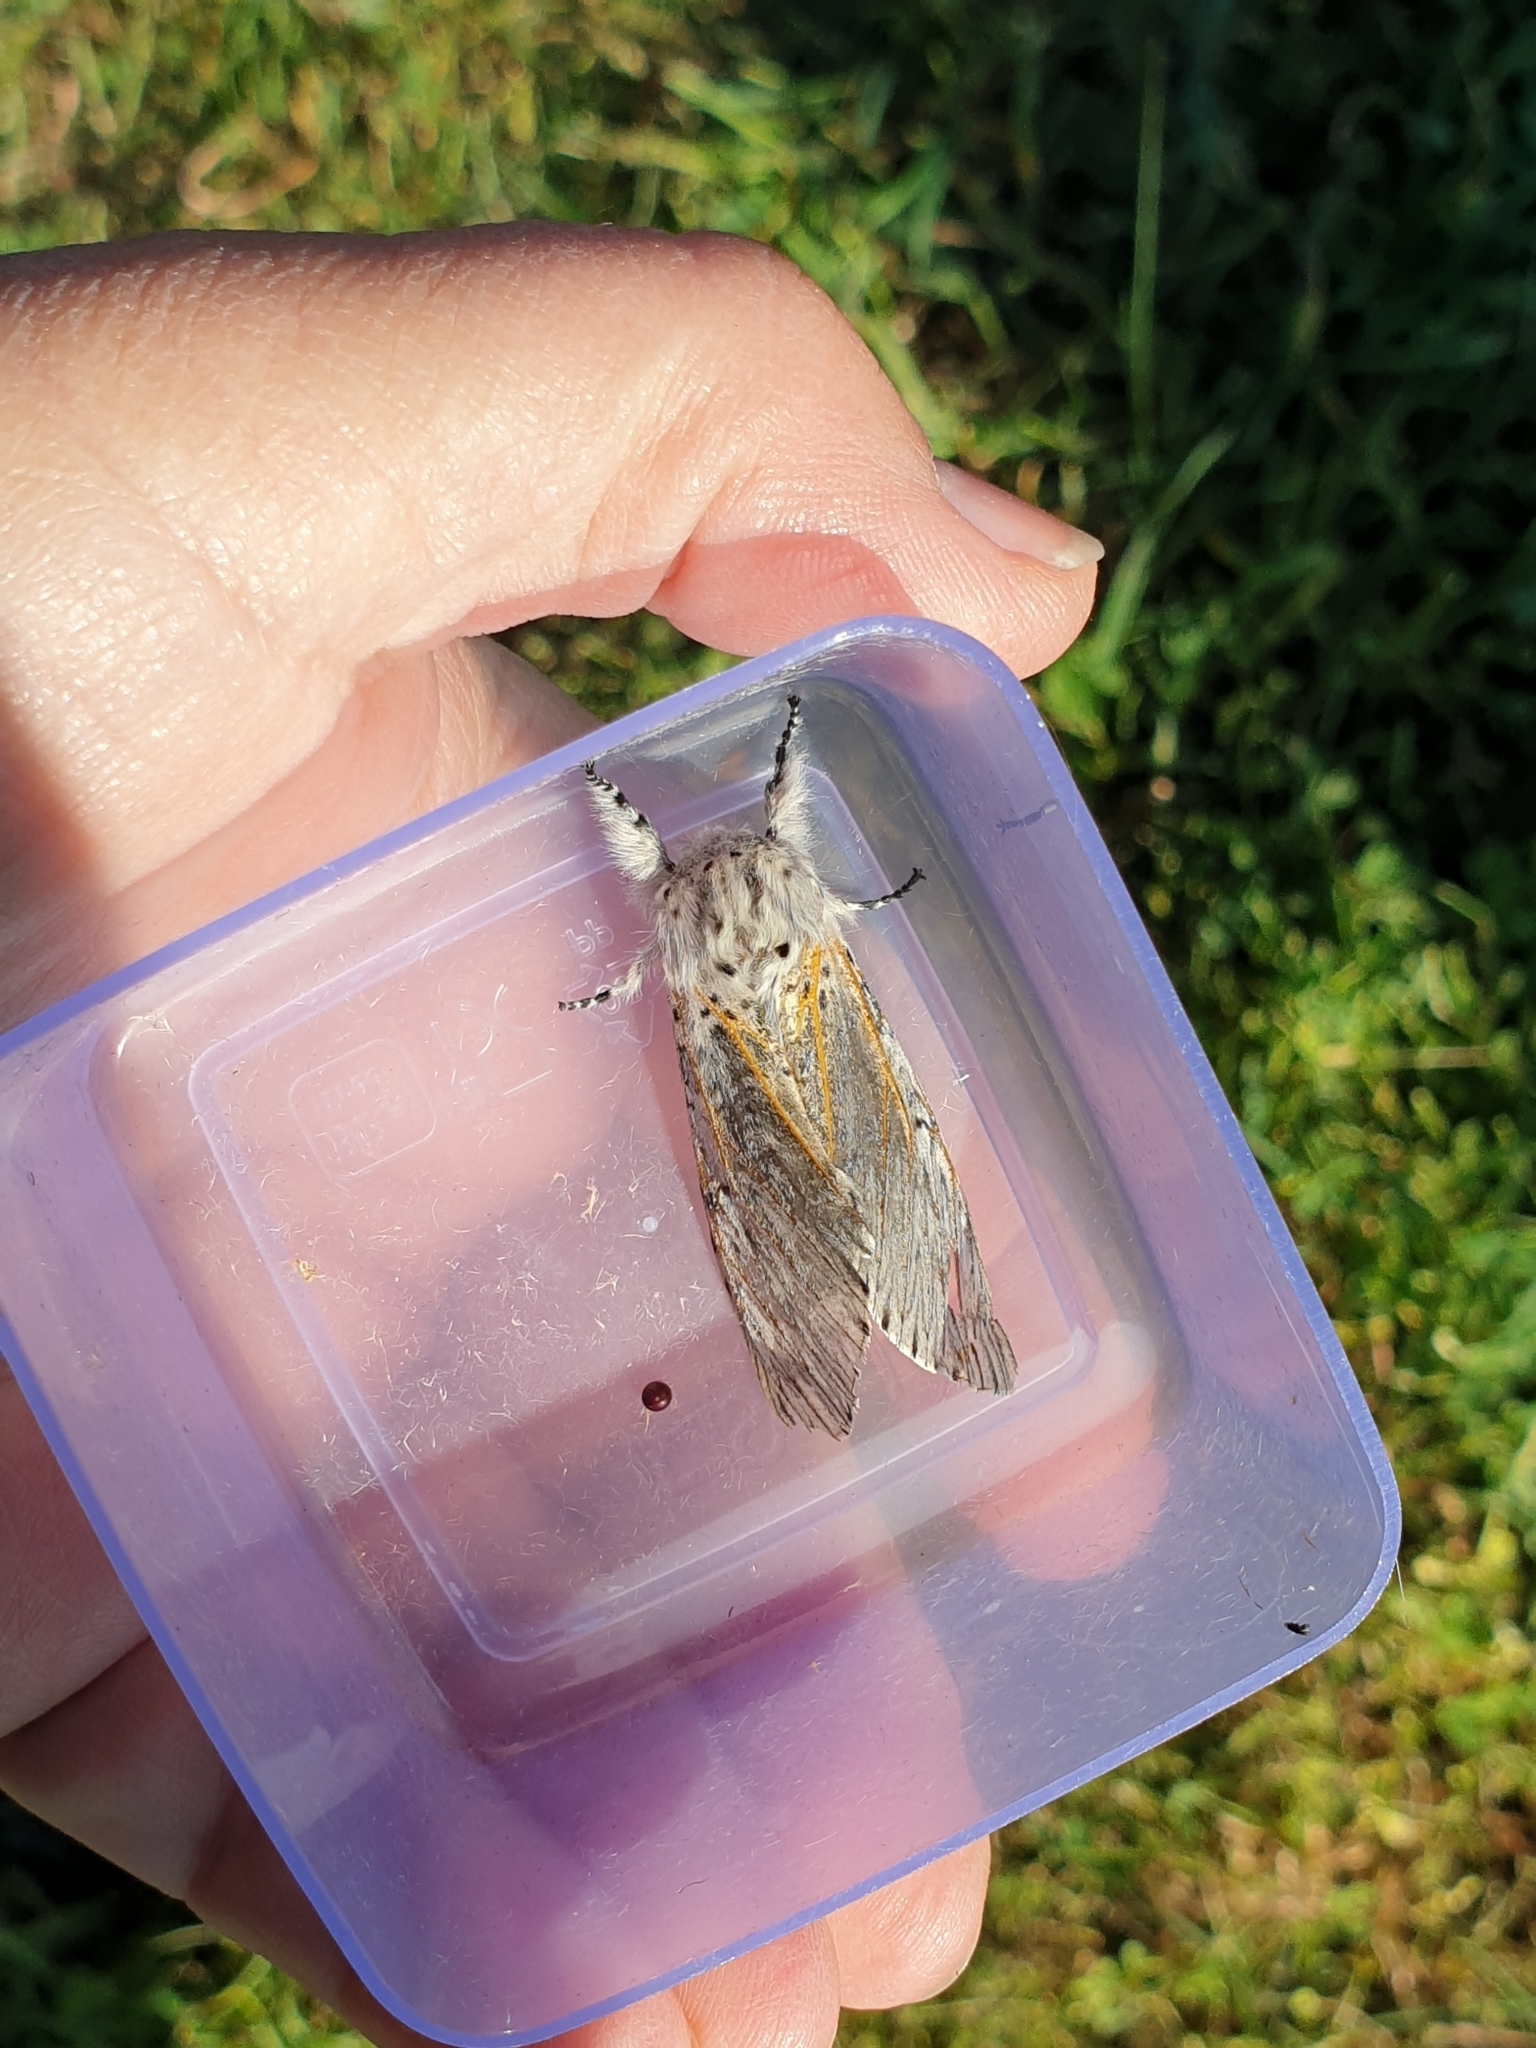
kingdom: Animalia
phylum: Arthropoda
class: Insecta
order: Lepidoptera
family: Notodontidae
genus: Cerura
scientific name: Cerura vinula
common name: Puss moth
